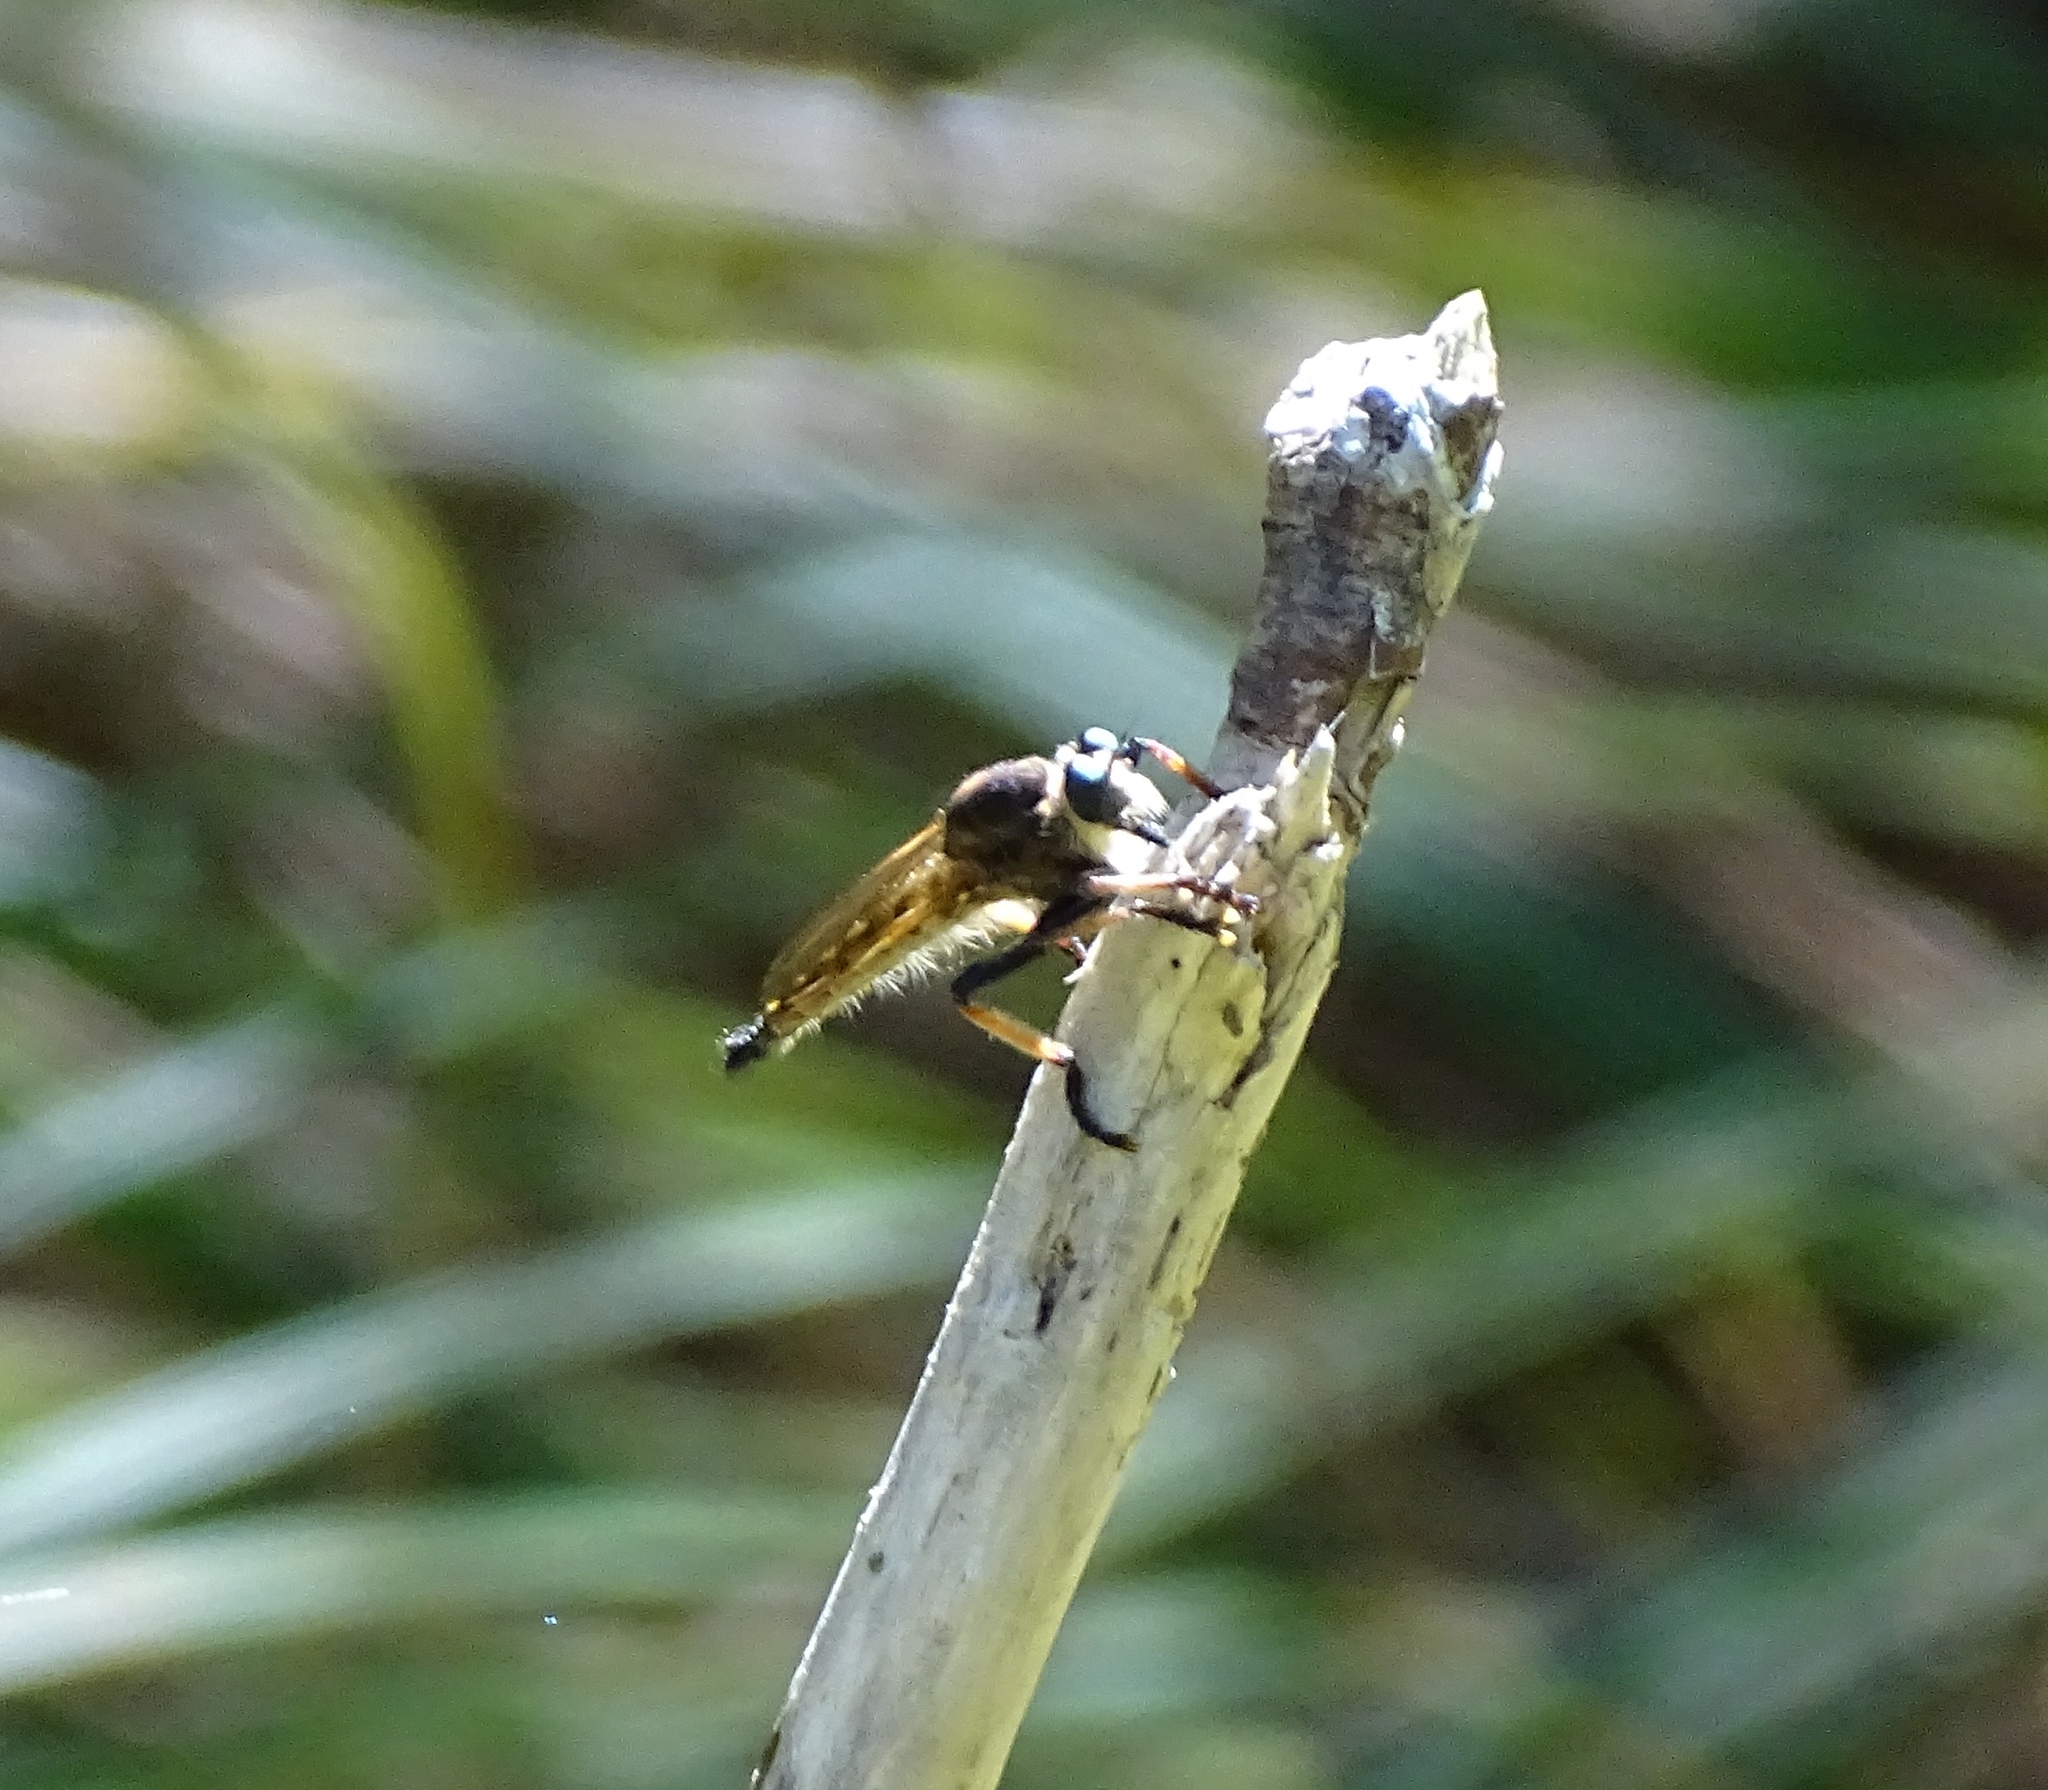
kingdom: Animalia
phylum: Arthropoda
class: Insecta
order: Diptera
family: Asilidae
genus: Promachus
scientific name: Promachus rufipes
